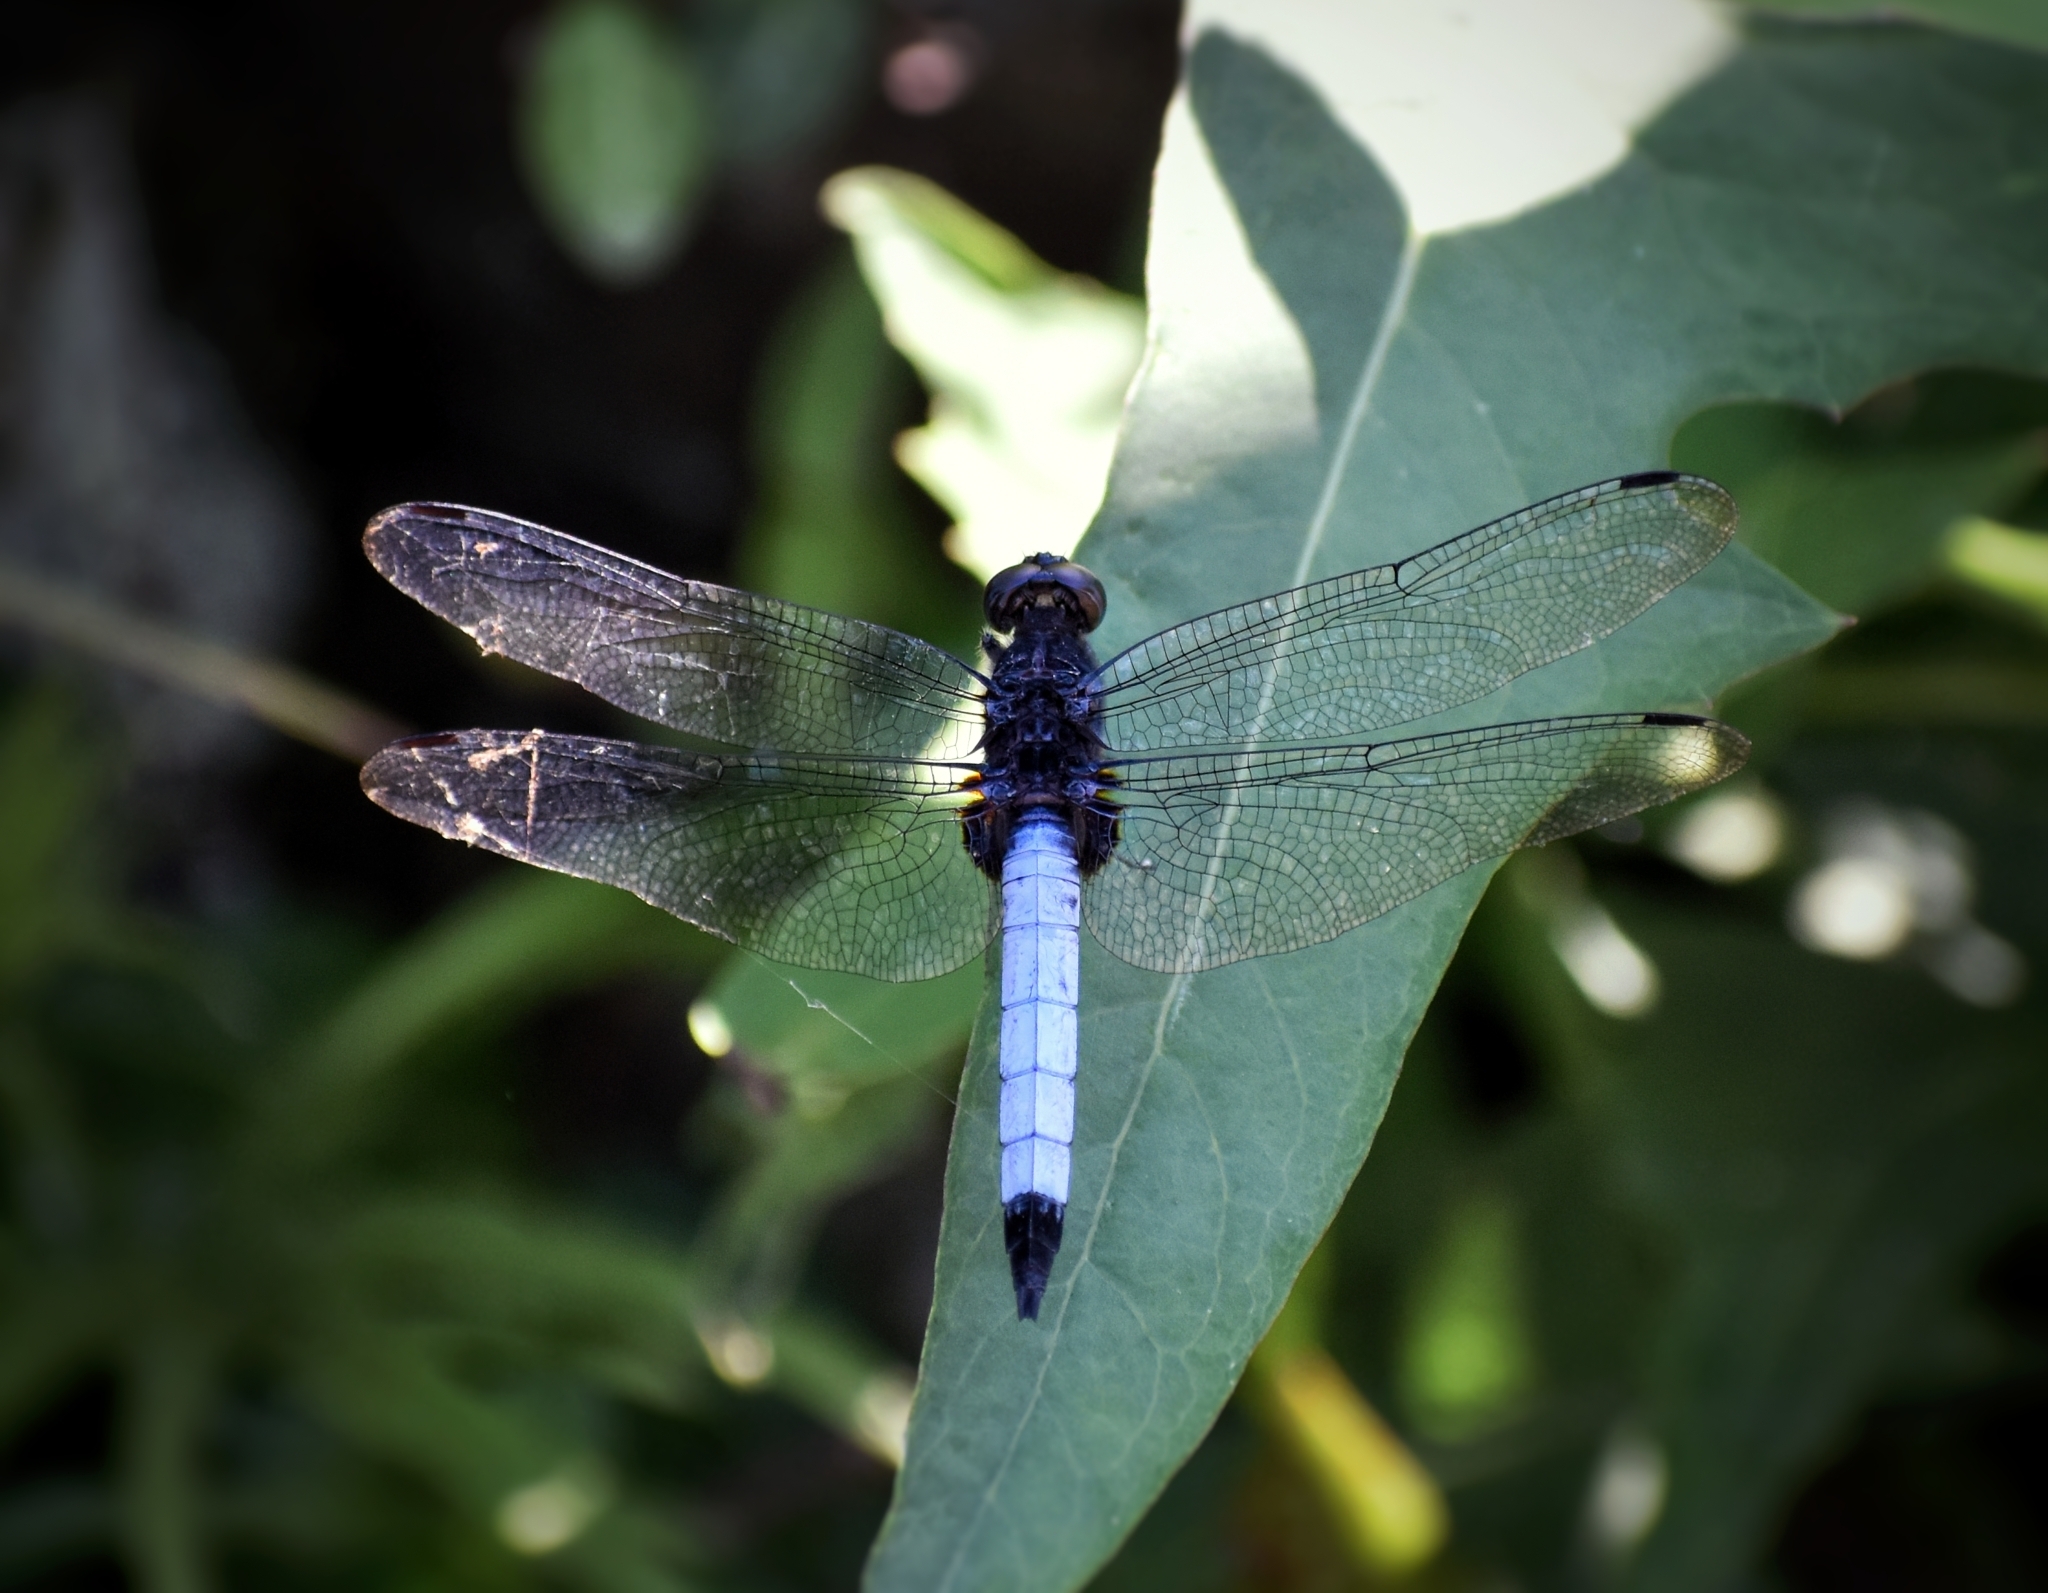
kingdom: Animalia
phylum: Arthropoda
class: Insecta
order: Odonata
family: Libellulidae
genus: Orthetrum
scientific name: Orthetrum triangulare
